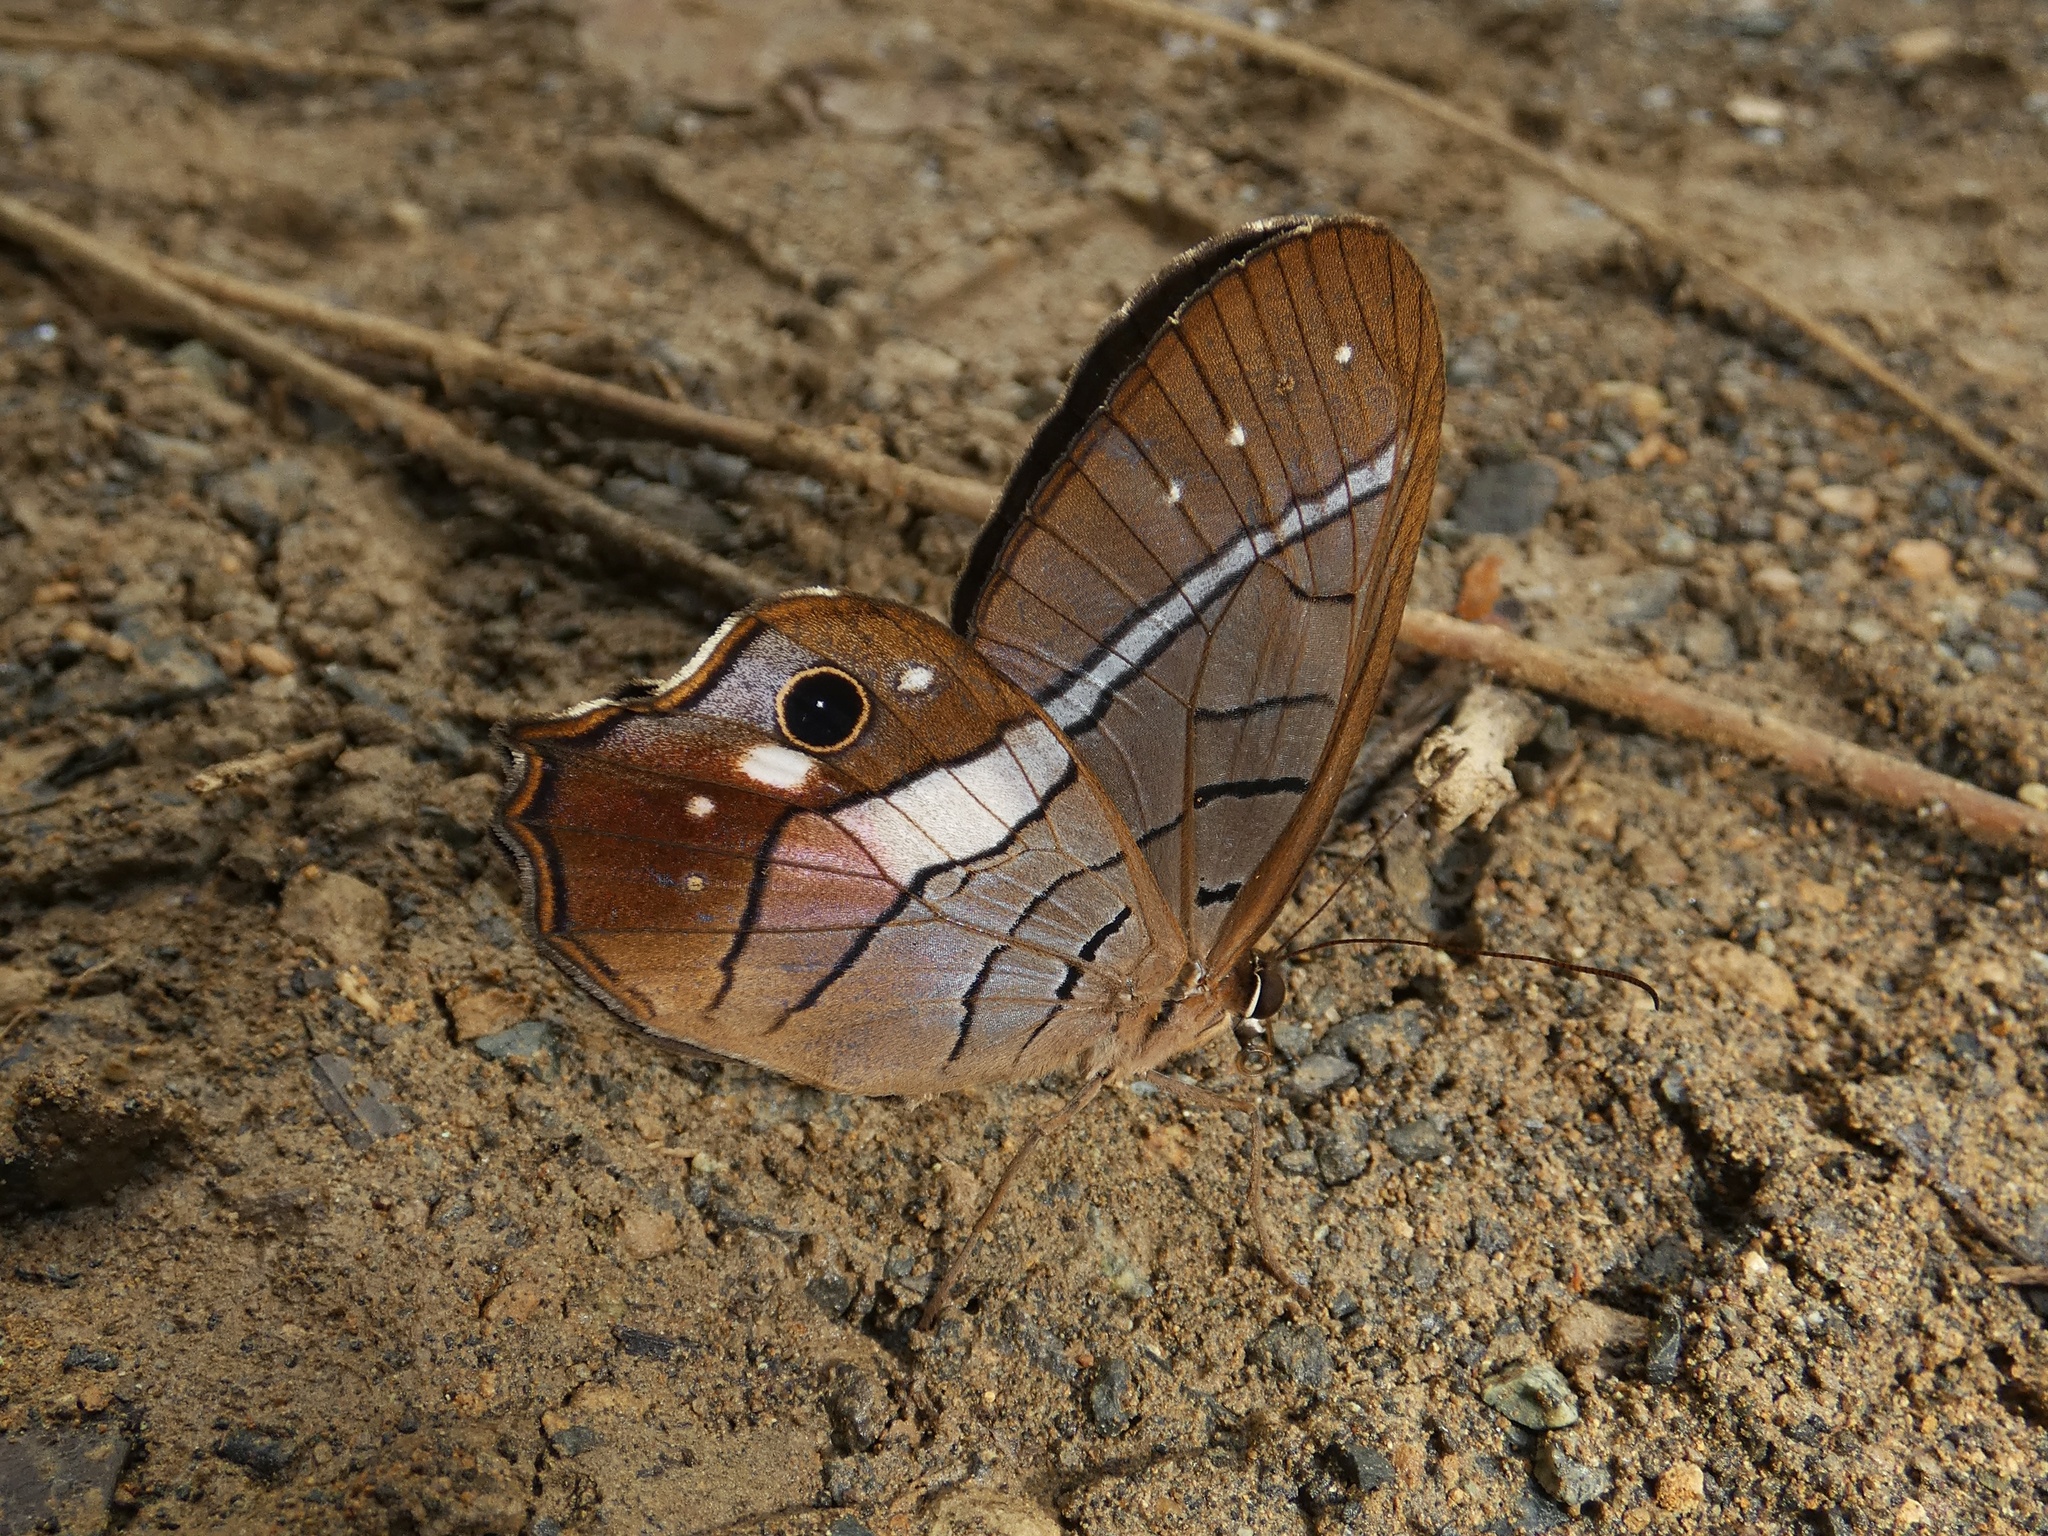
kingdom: Animalia
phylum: Arthropoda
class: Insecta
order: Lepidoptera
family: Nymphalidae
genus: Pierella
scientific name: Pierella helvina
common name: Red-washed satyr
